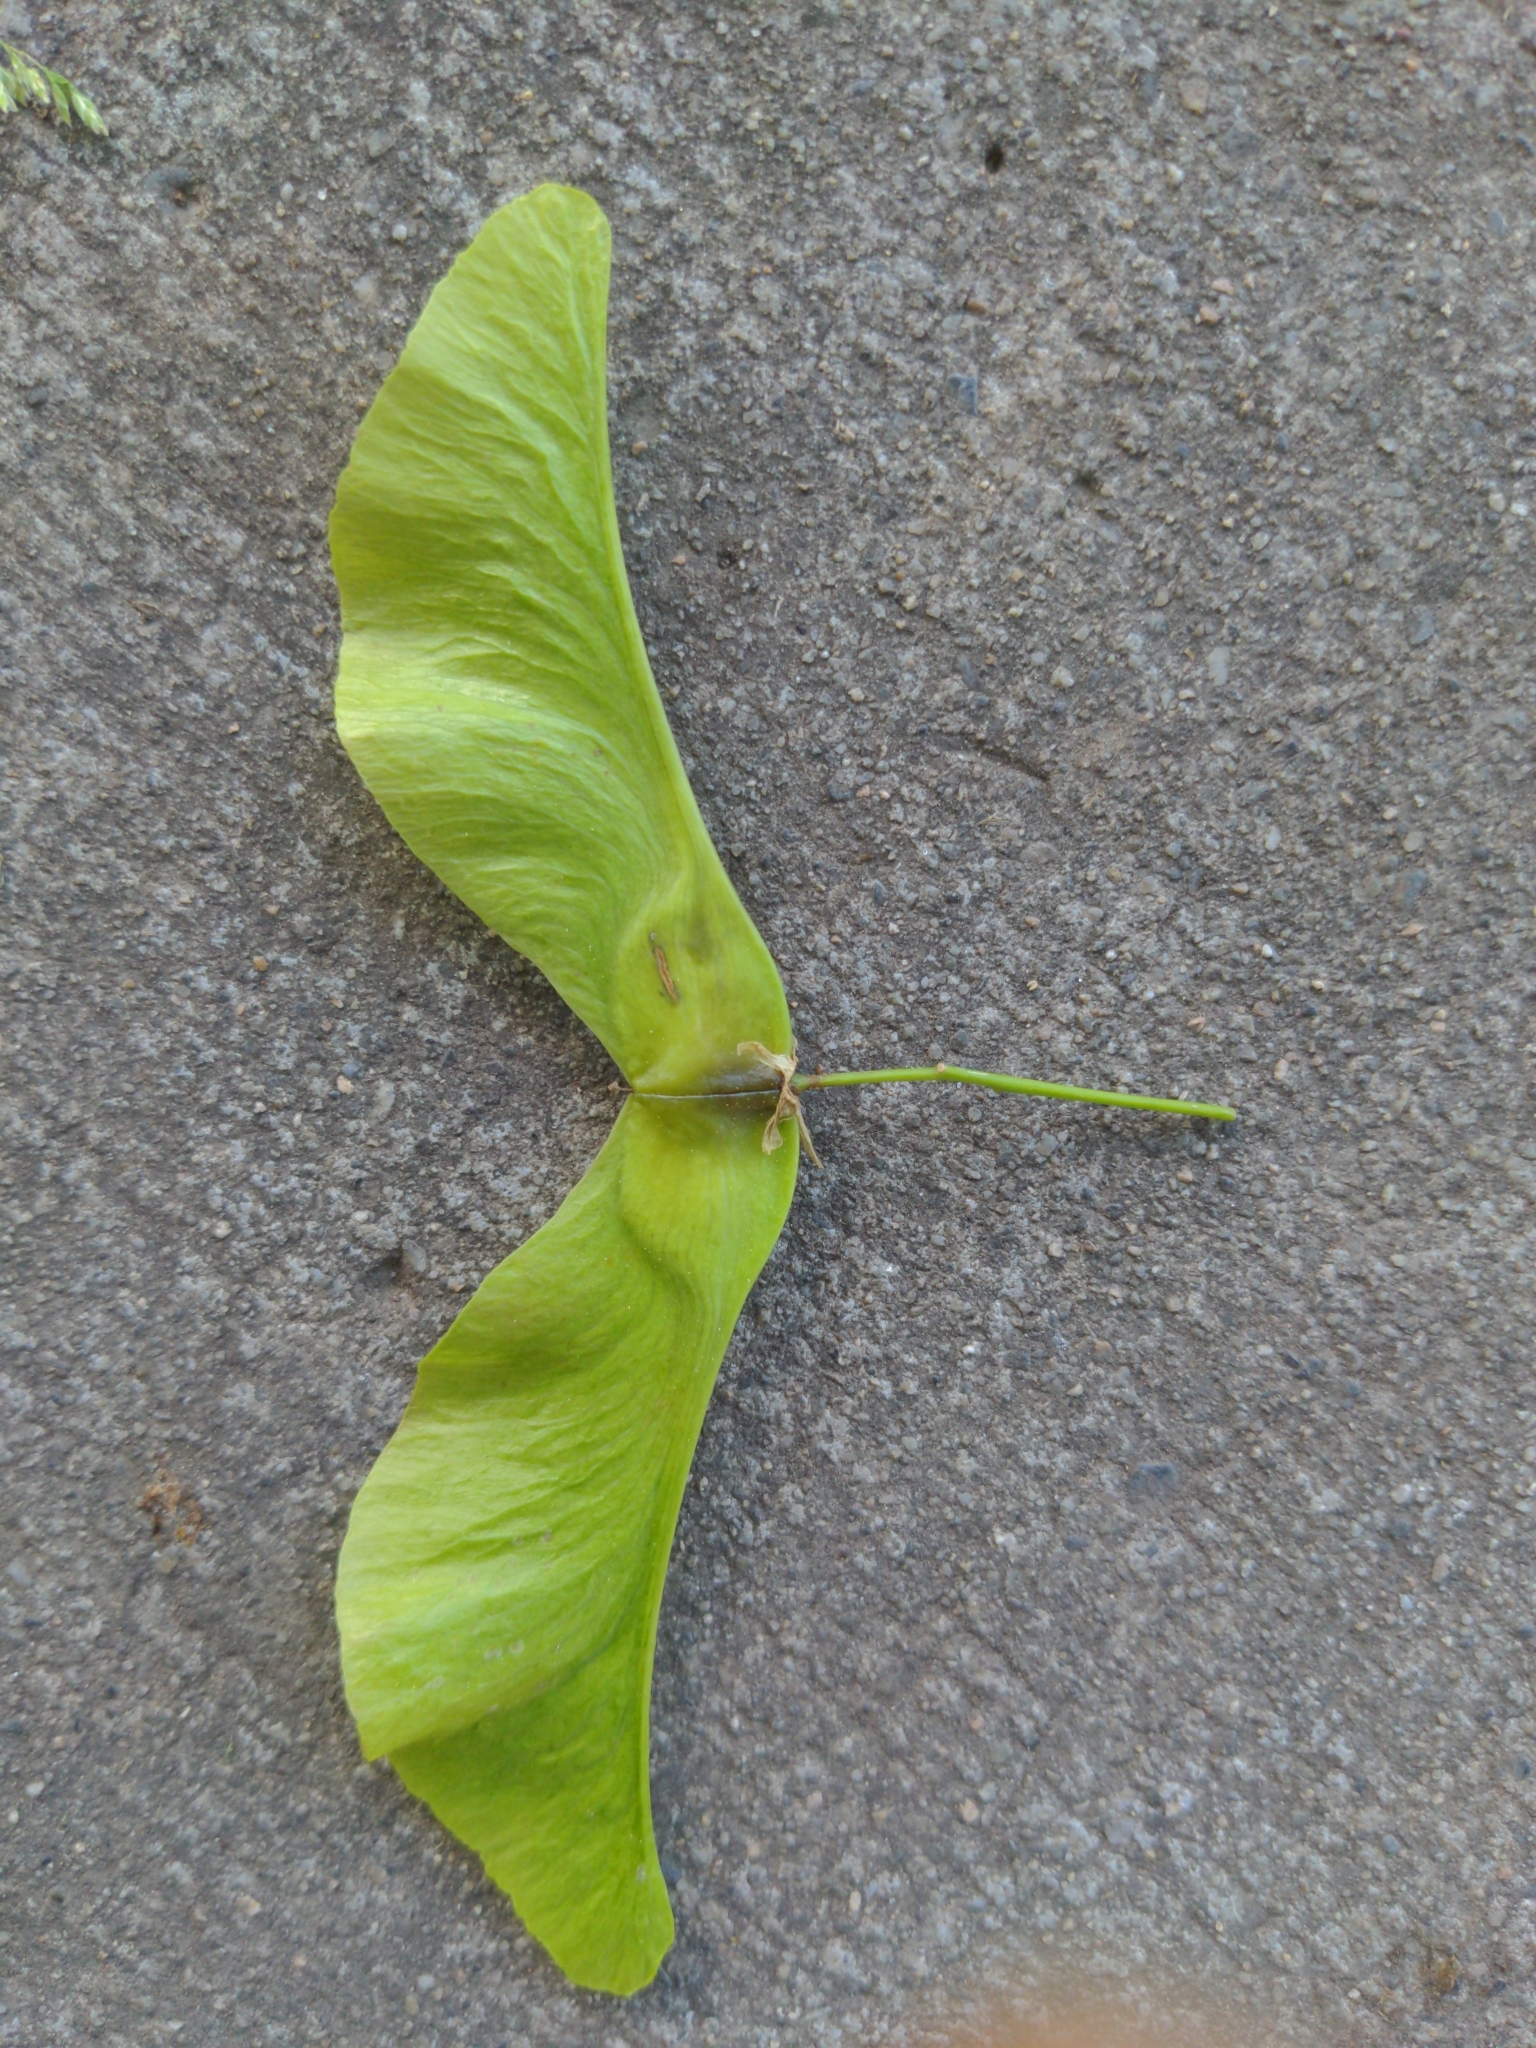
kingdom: Plantae
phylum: Tracheophyta
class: Magnoliopsida
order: Sapindales
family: Sapindaceae
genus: Acer
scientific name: Acer platanoides
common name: Norway maple
